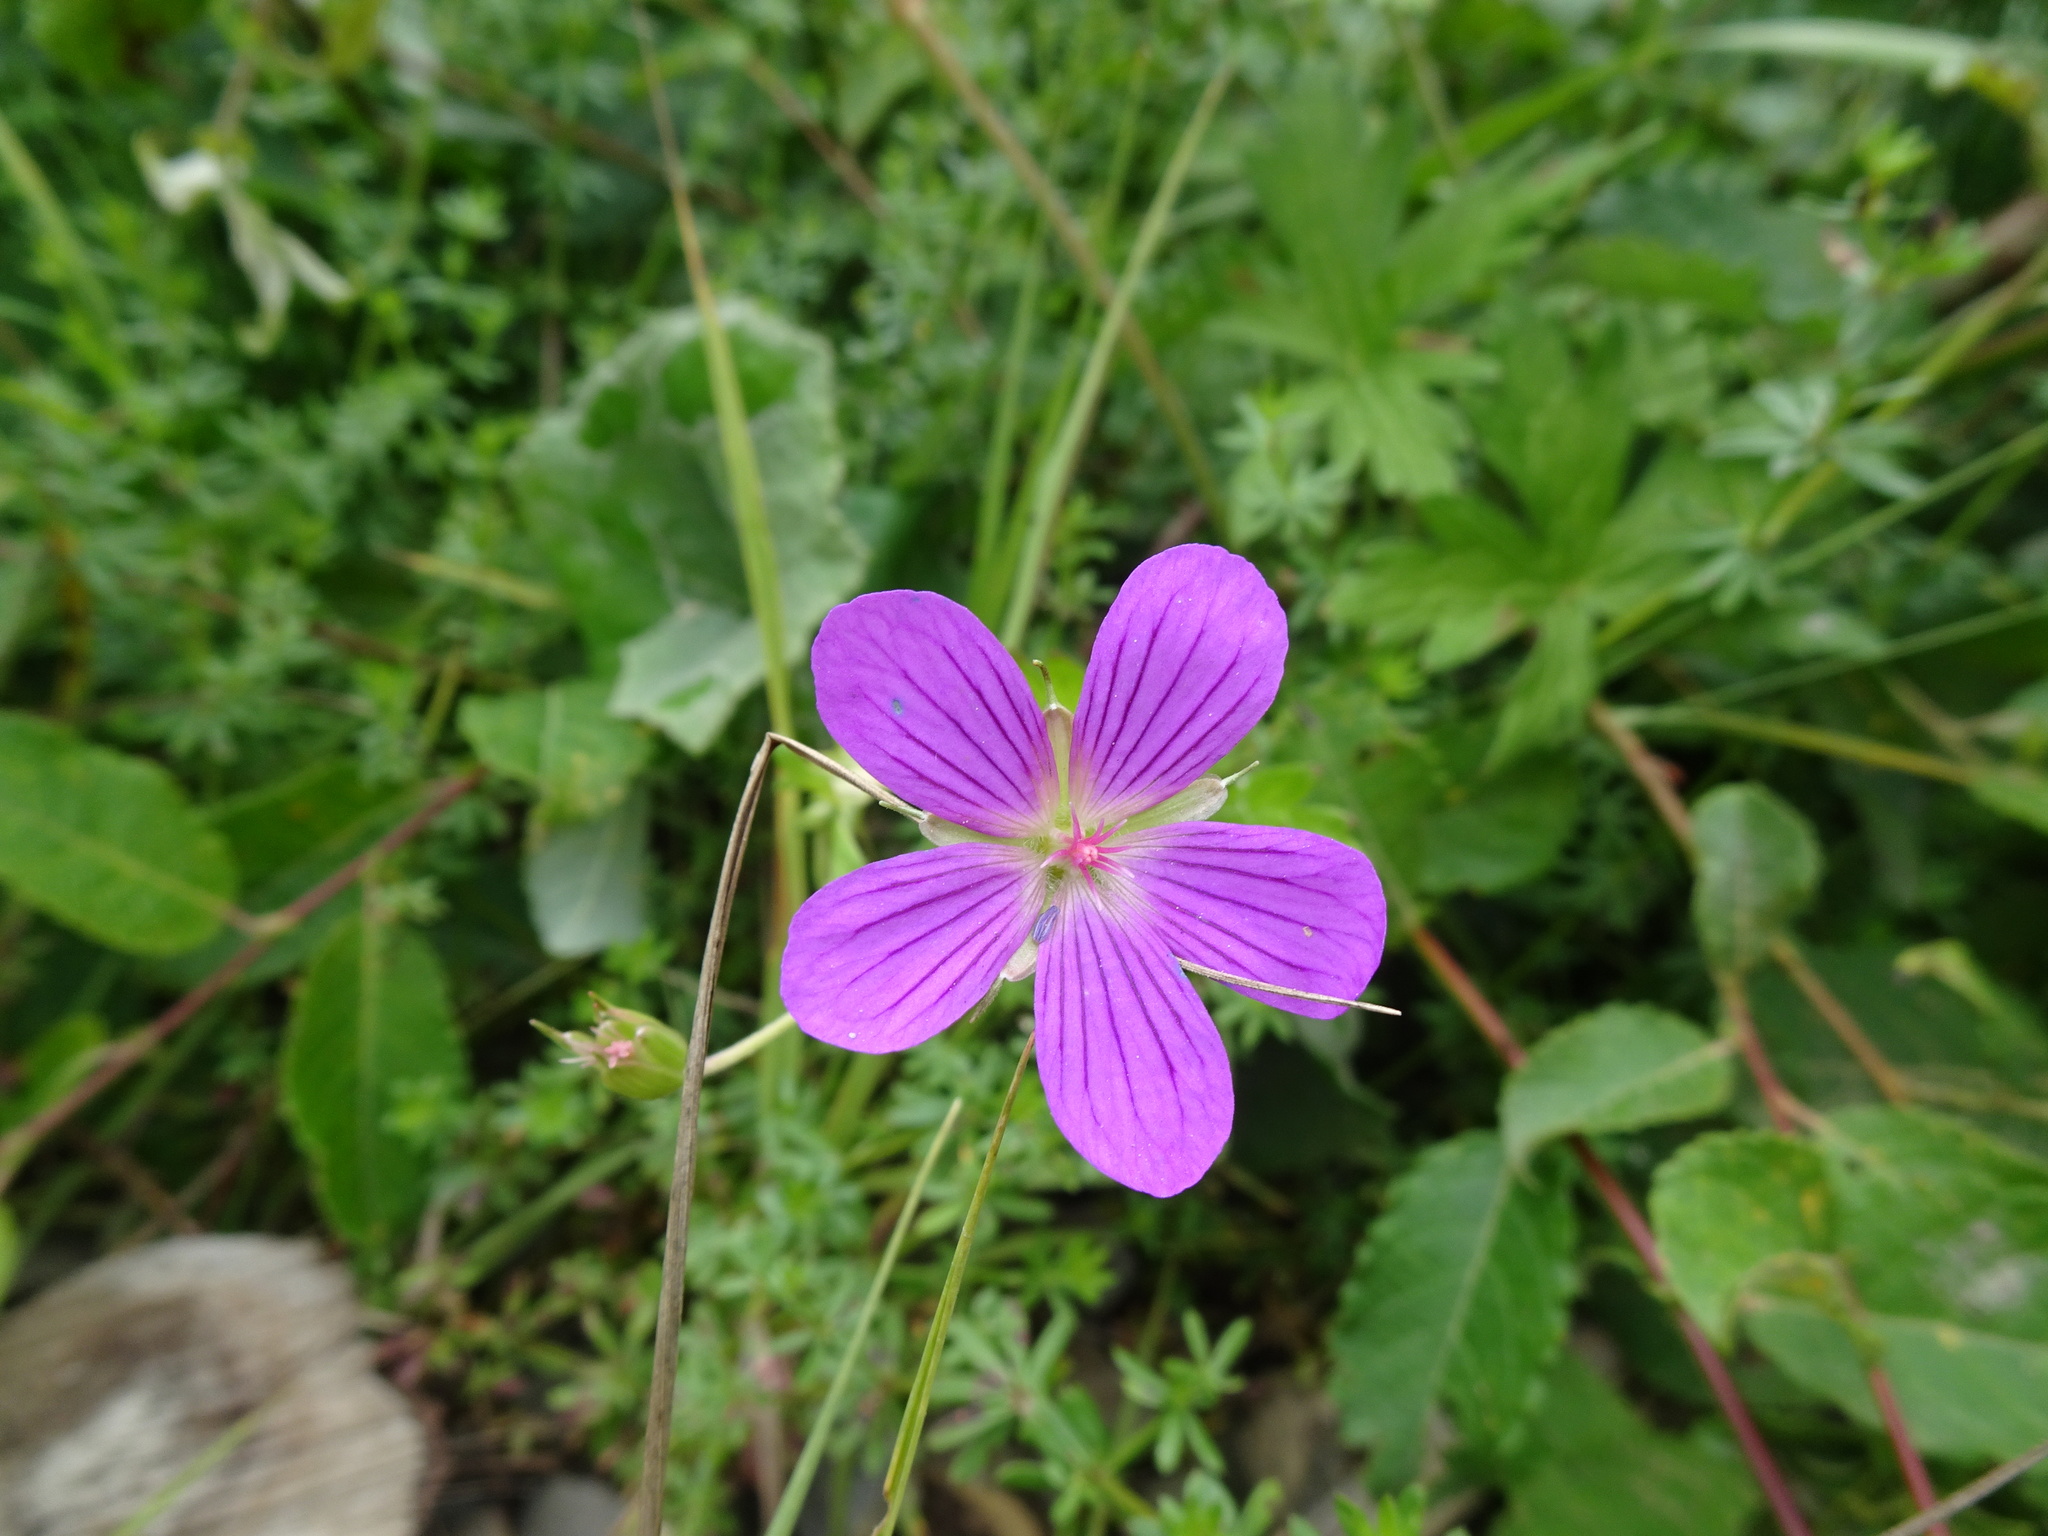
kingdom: Plantae
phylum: Tracheophyta
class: Magnoliopsida
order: Geraniales
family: Geraniaceae
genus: Geranium
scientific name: Geranium palustre
